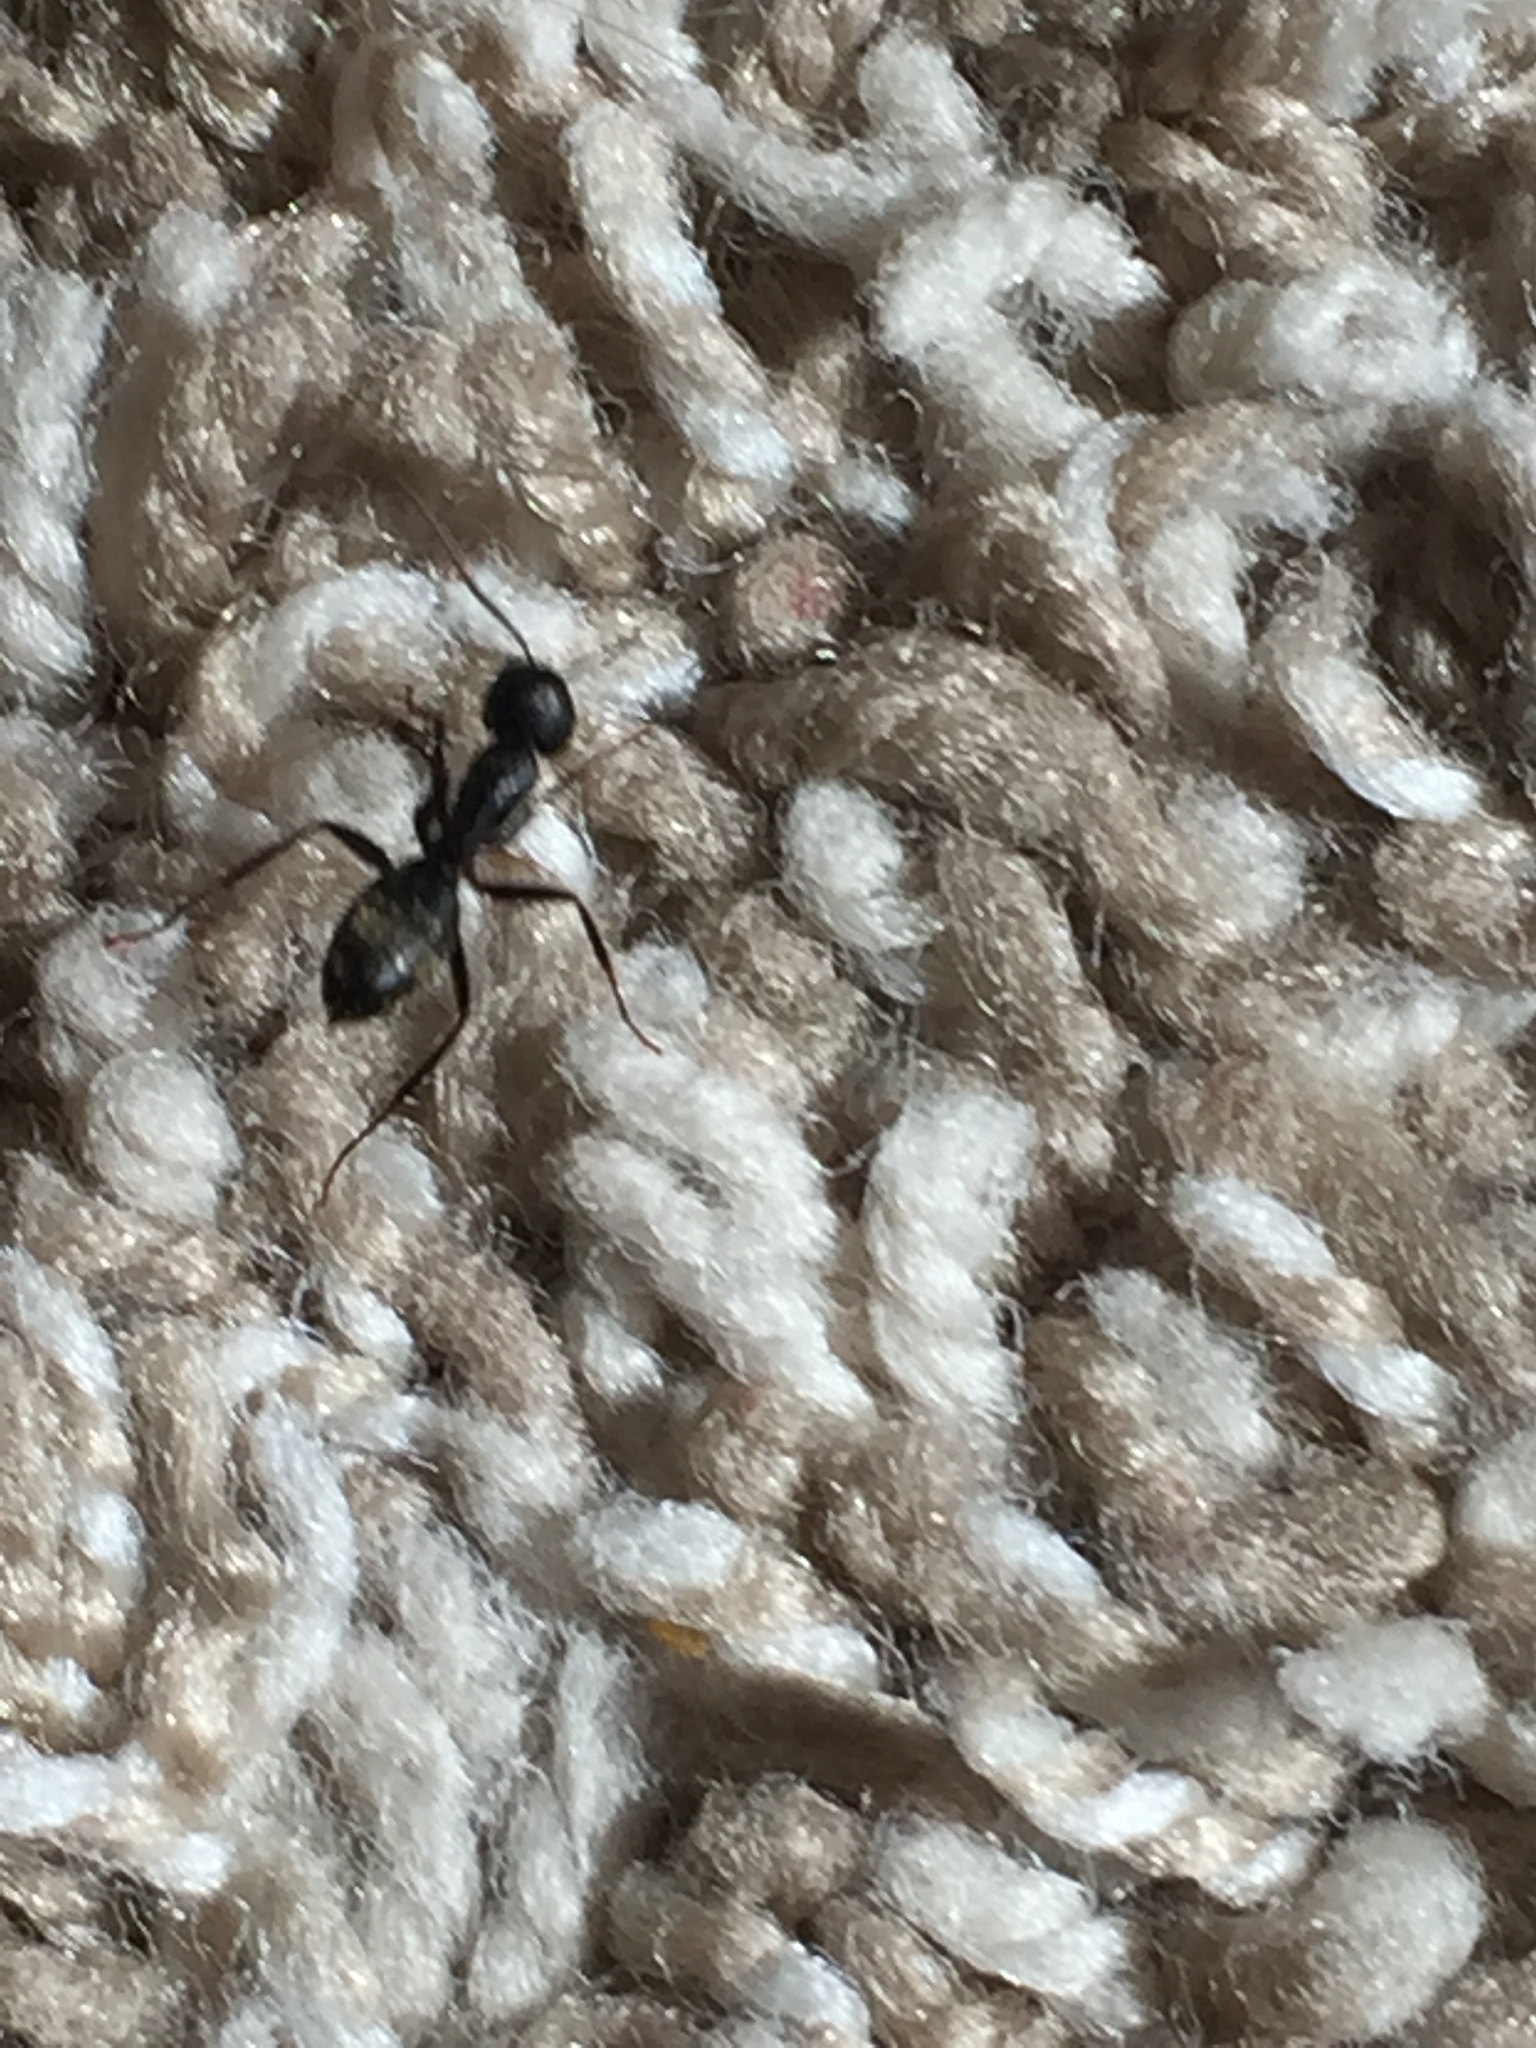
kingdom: Animalia
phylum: Arthropoda
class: Insecta
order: Hymenoptera
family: Formicidae
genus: Camponotus
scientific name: Camponotus pennsylvanicus
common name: Black carpenter ant
